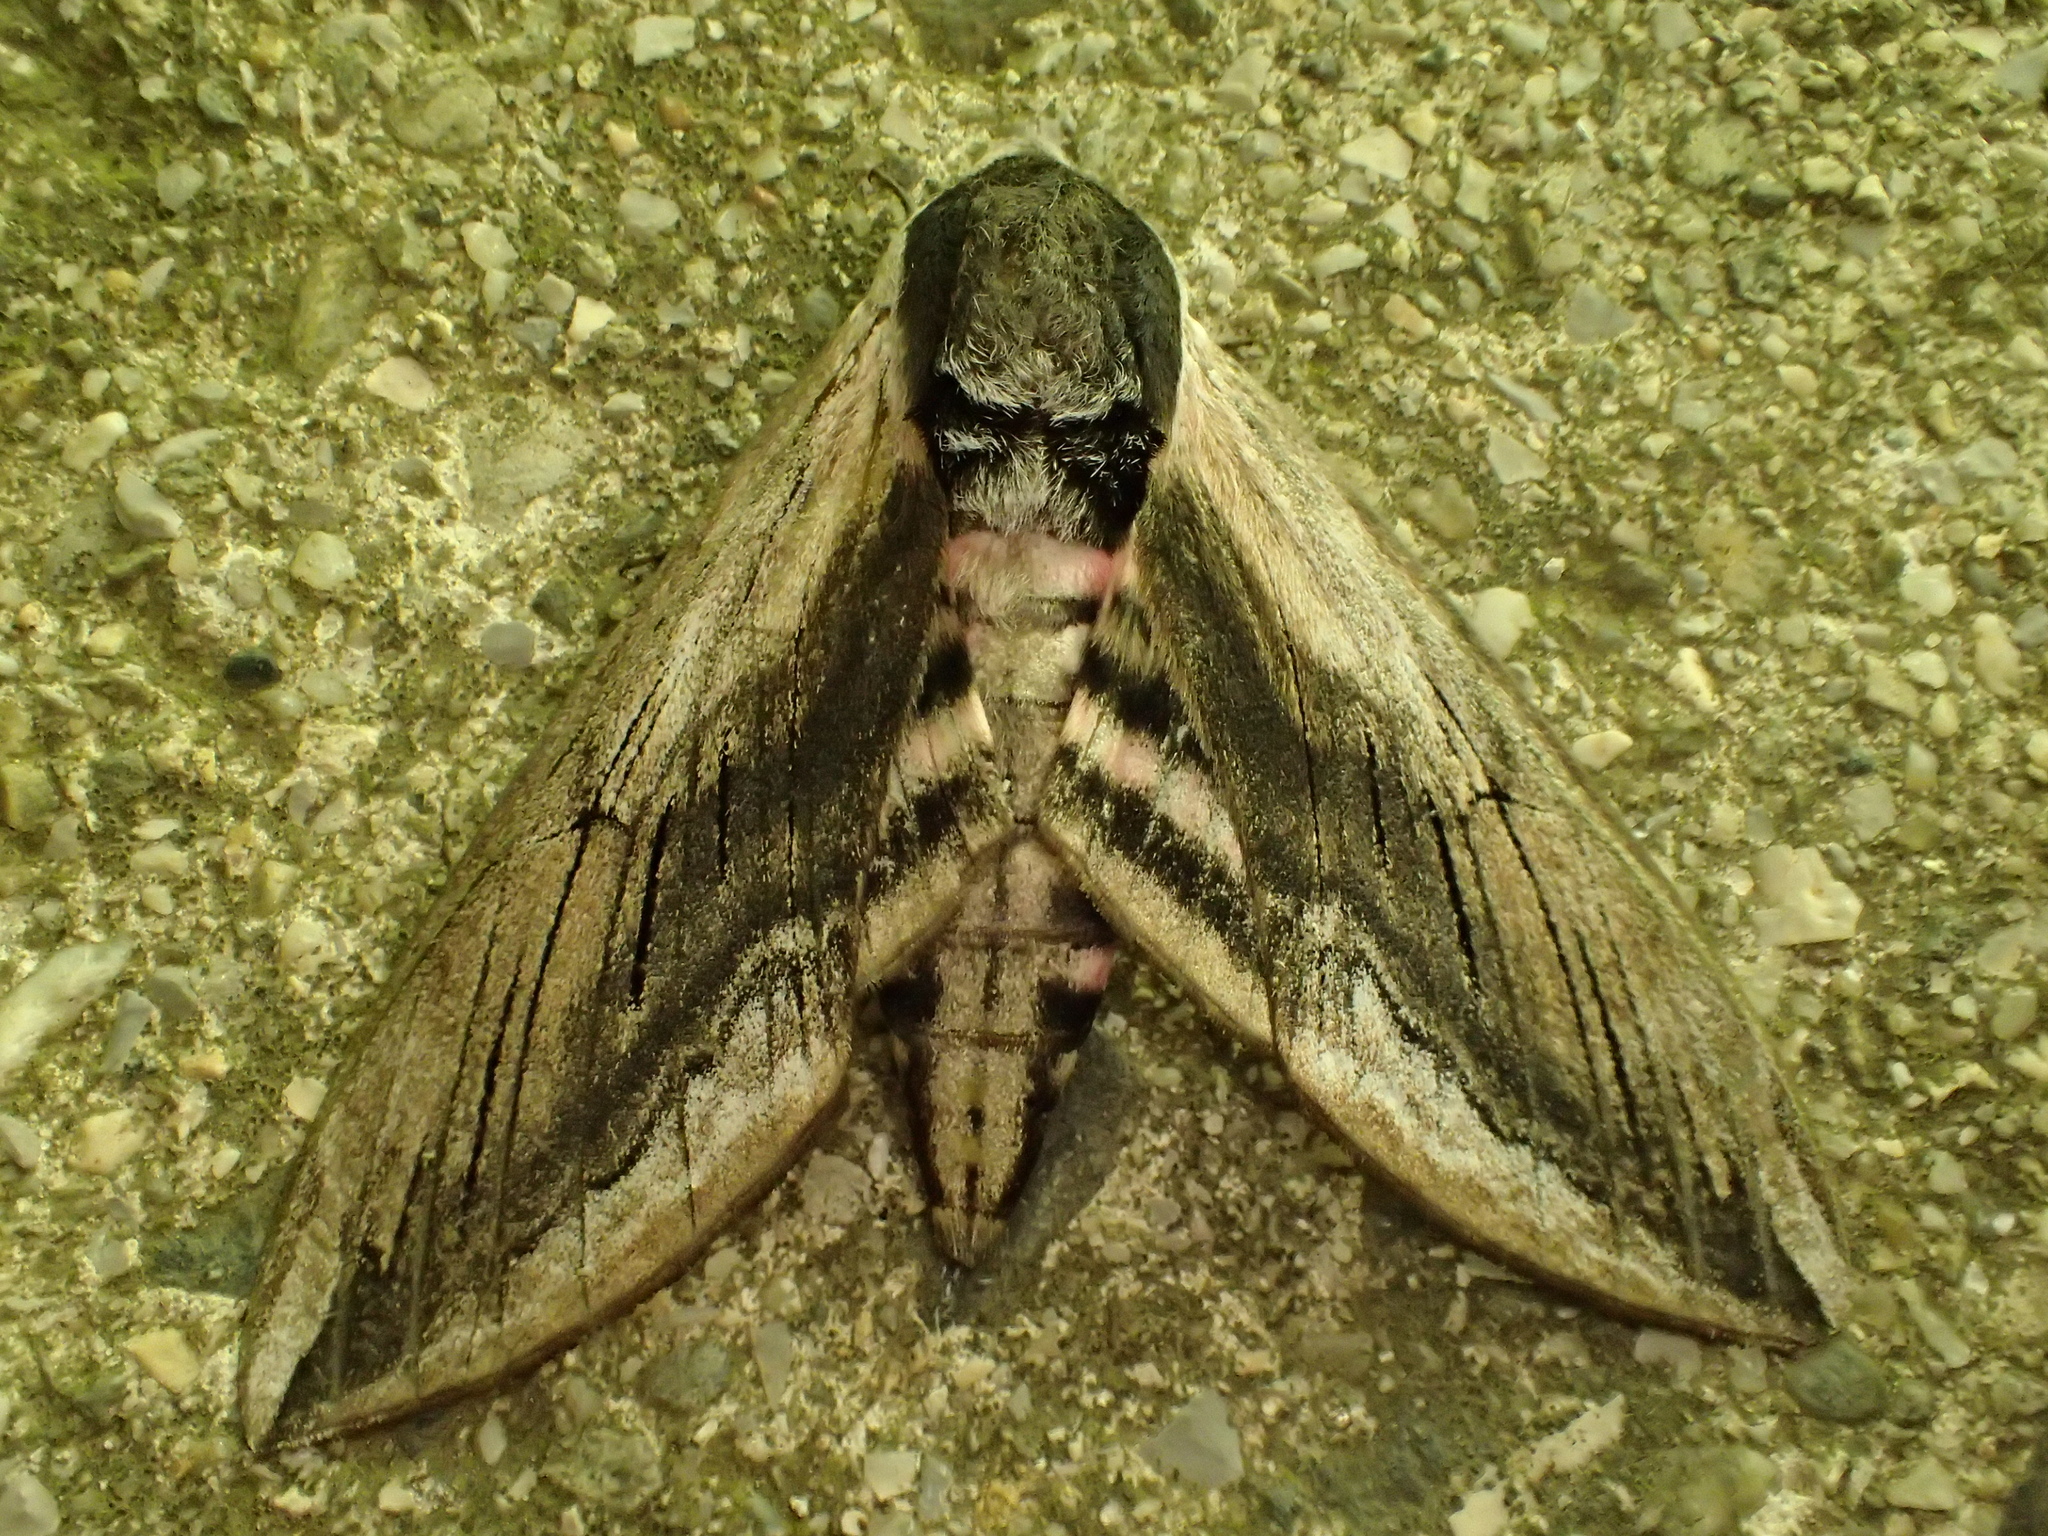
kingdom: Animalia
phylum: Arthropoda
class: Insecta
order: Lepidoptera
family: Sphingidae
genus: Sphinx
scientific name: Sphinx ligustri
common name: Privet hawk-moth
